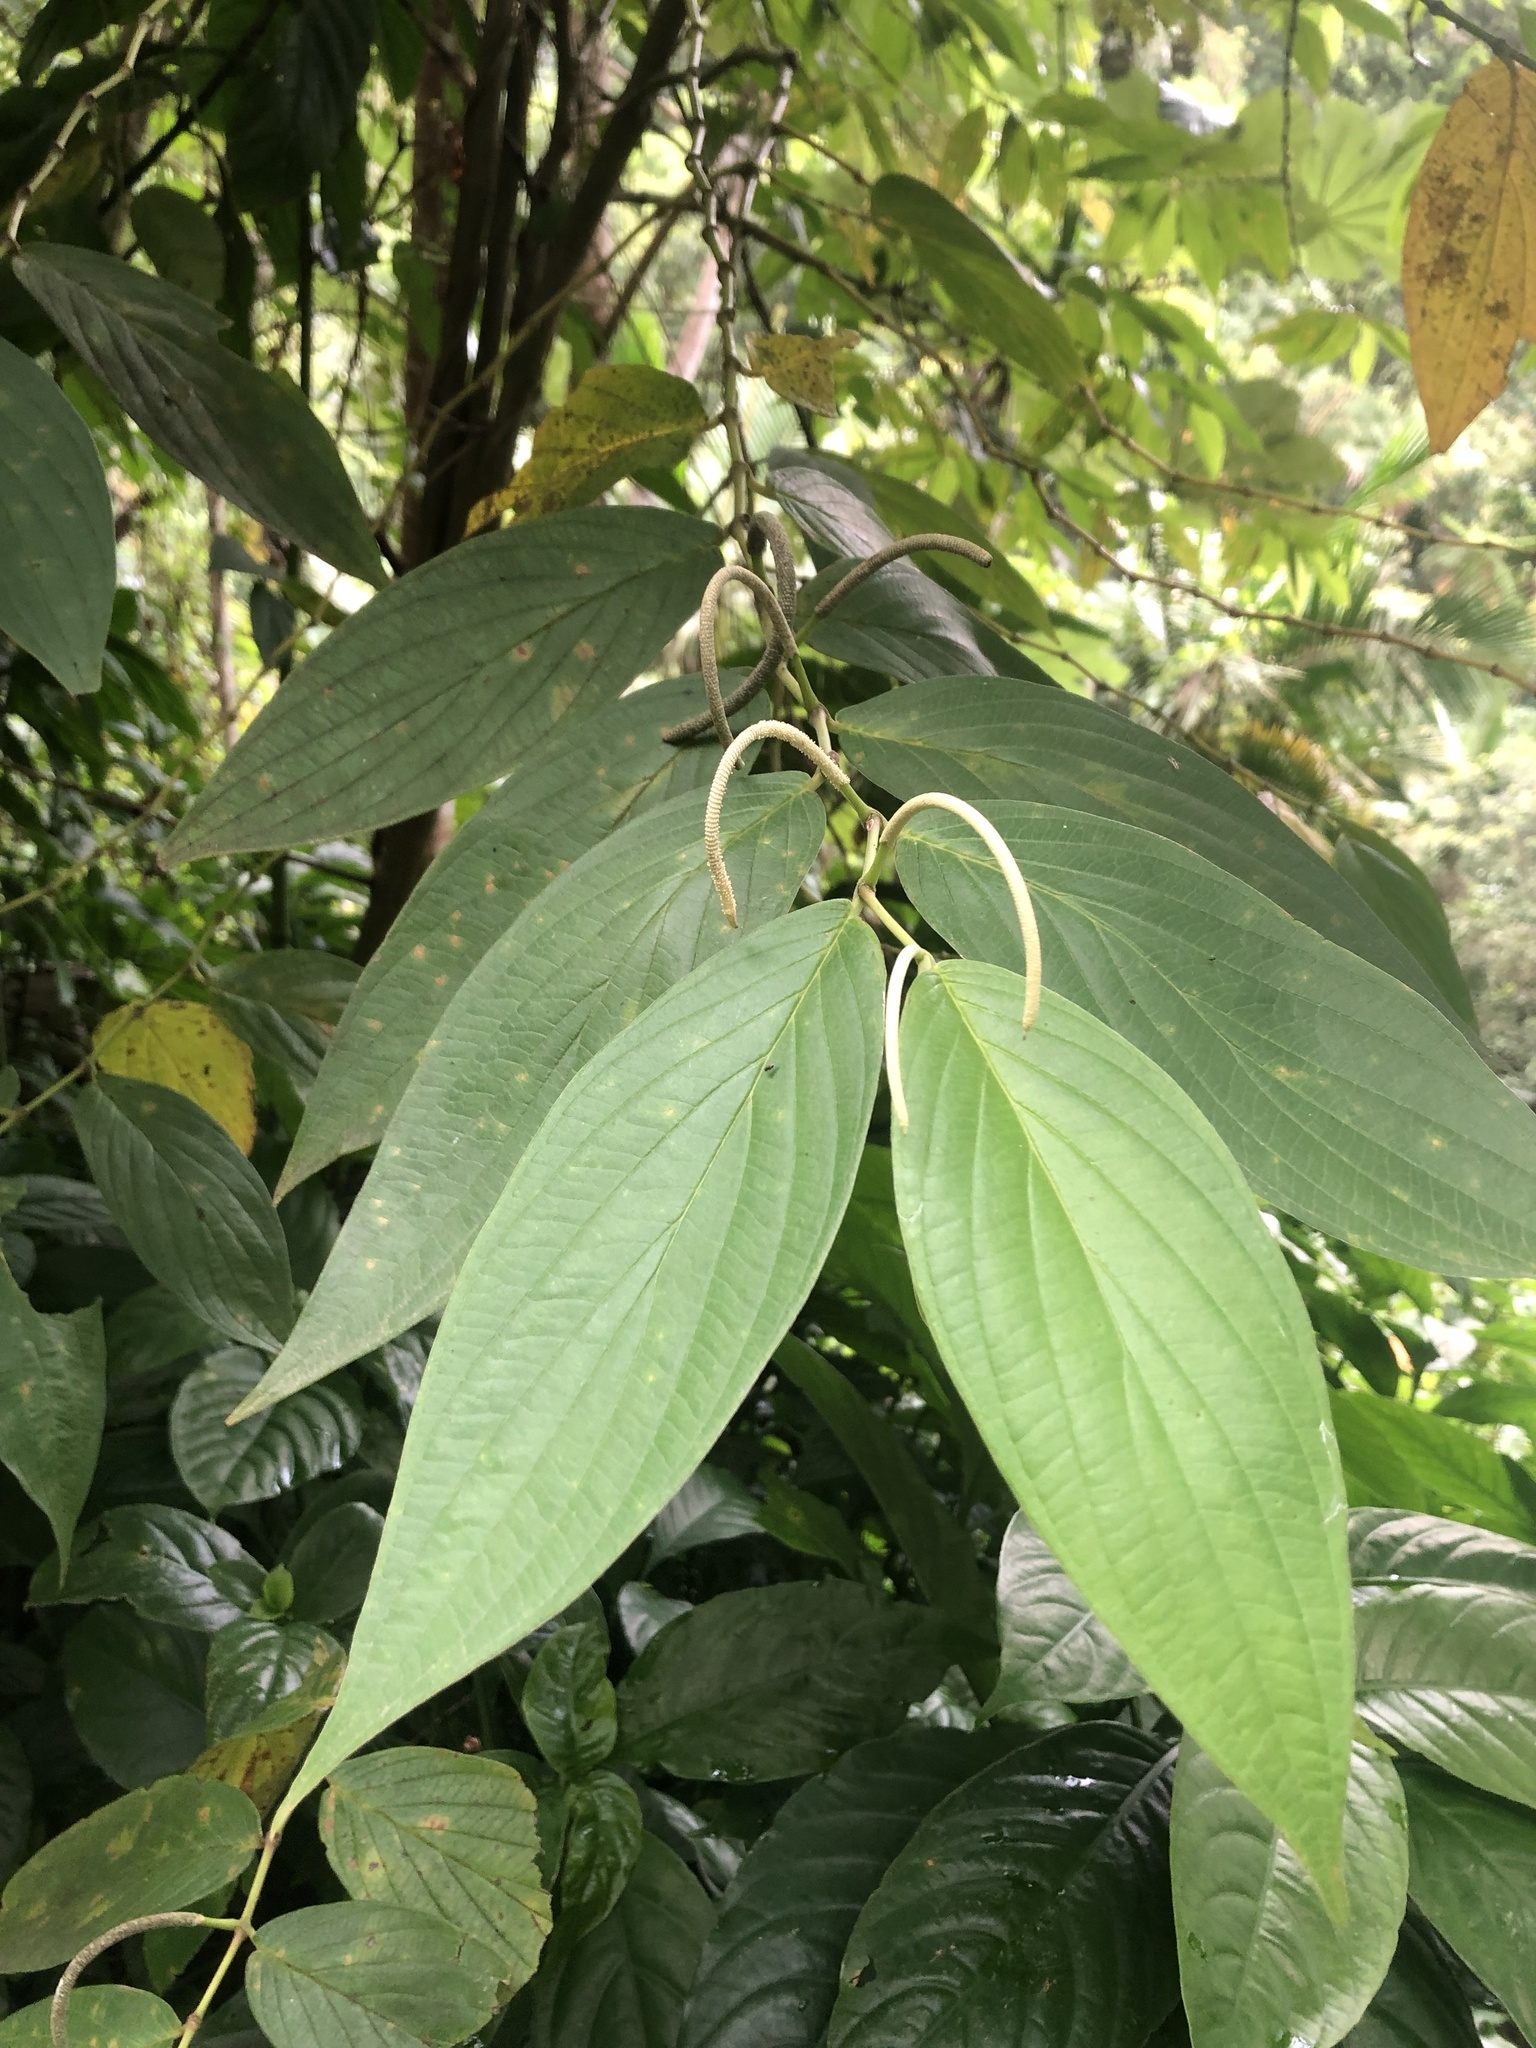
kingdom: Plantae
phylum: Tracheophyta
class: Magnoliopsida
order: Piperales
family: Piperaceae
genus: Piper
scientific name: Piper aduncum
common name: Spiked pepper
